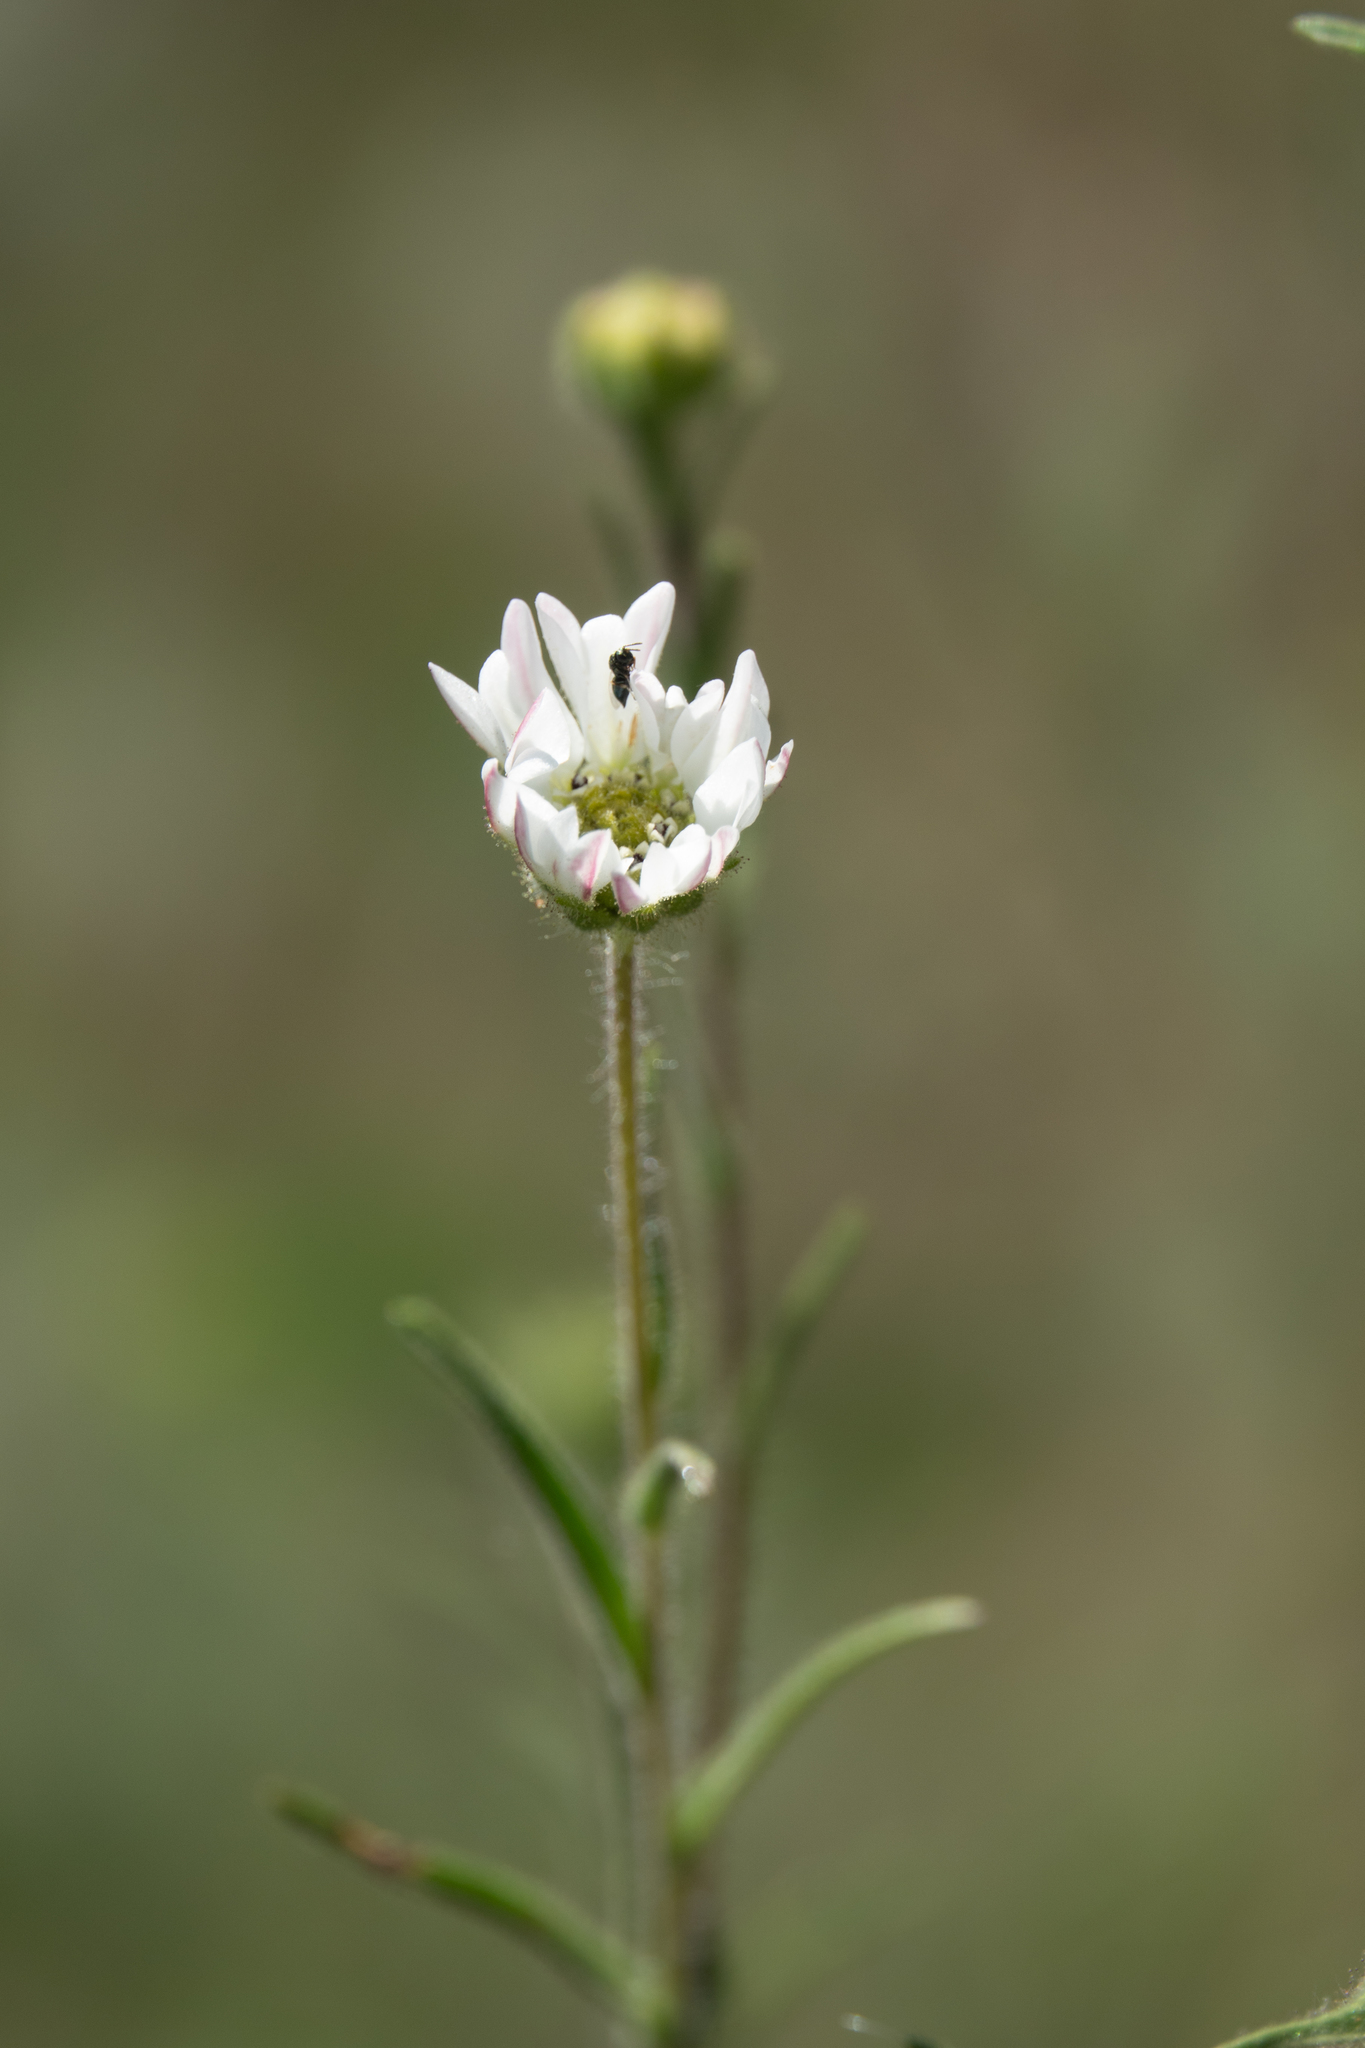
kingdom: Plantae
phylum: Tracheophyta
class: Magnoliopsida
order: Asterales
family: Asteraceae
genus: Hemizonia
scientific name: Hemizonia congesta
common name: Hayfield tarweed
